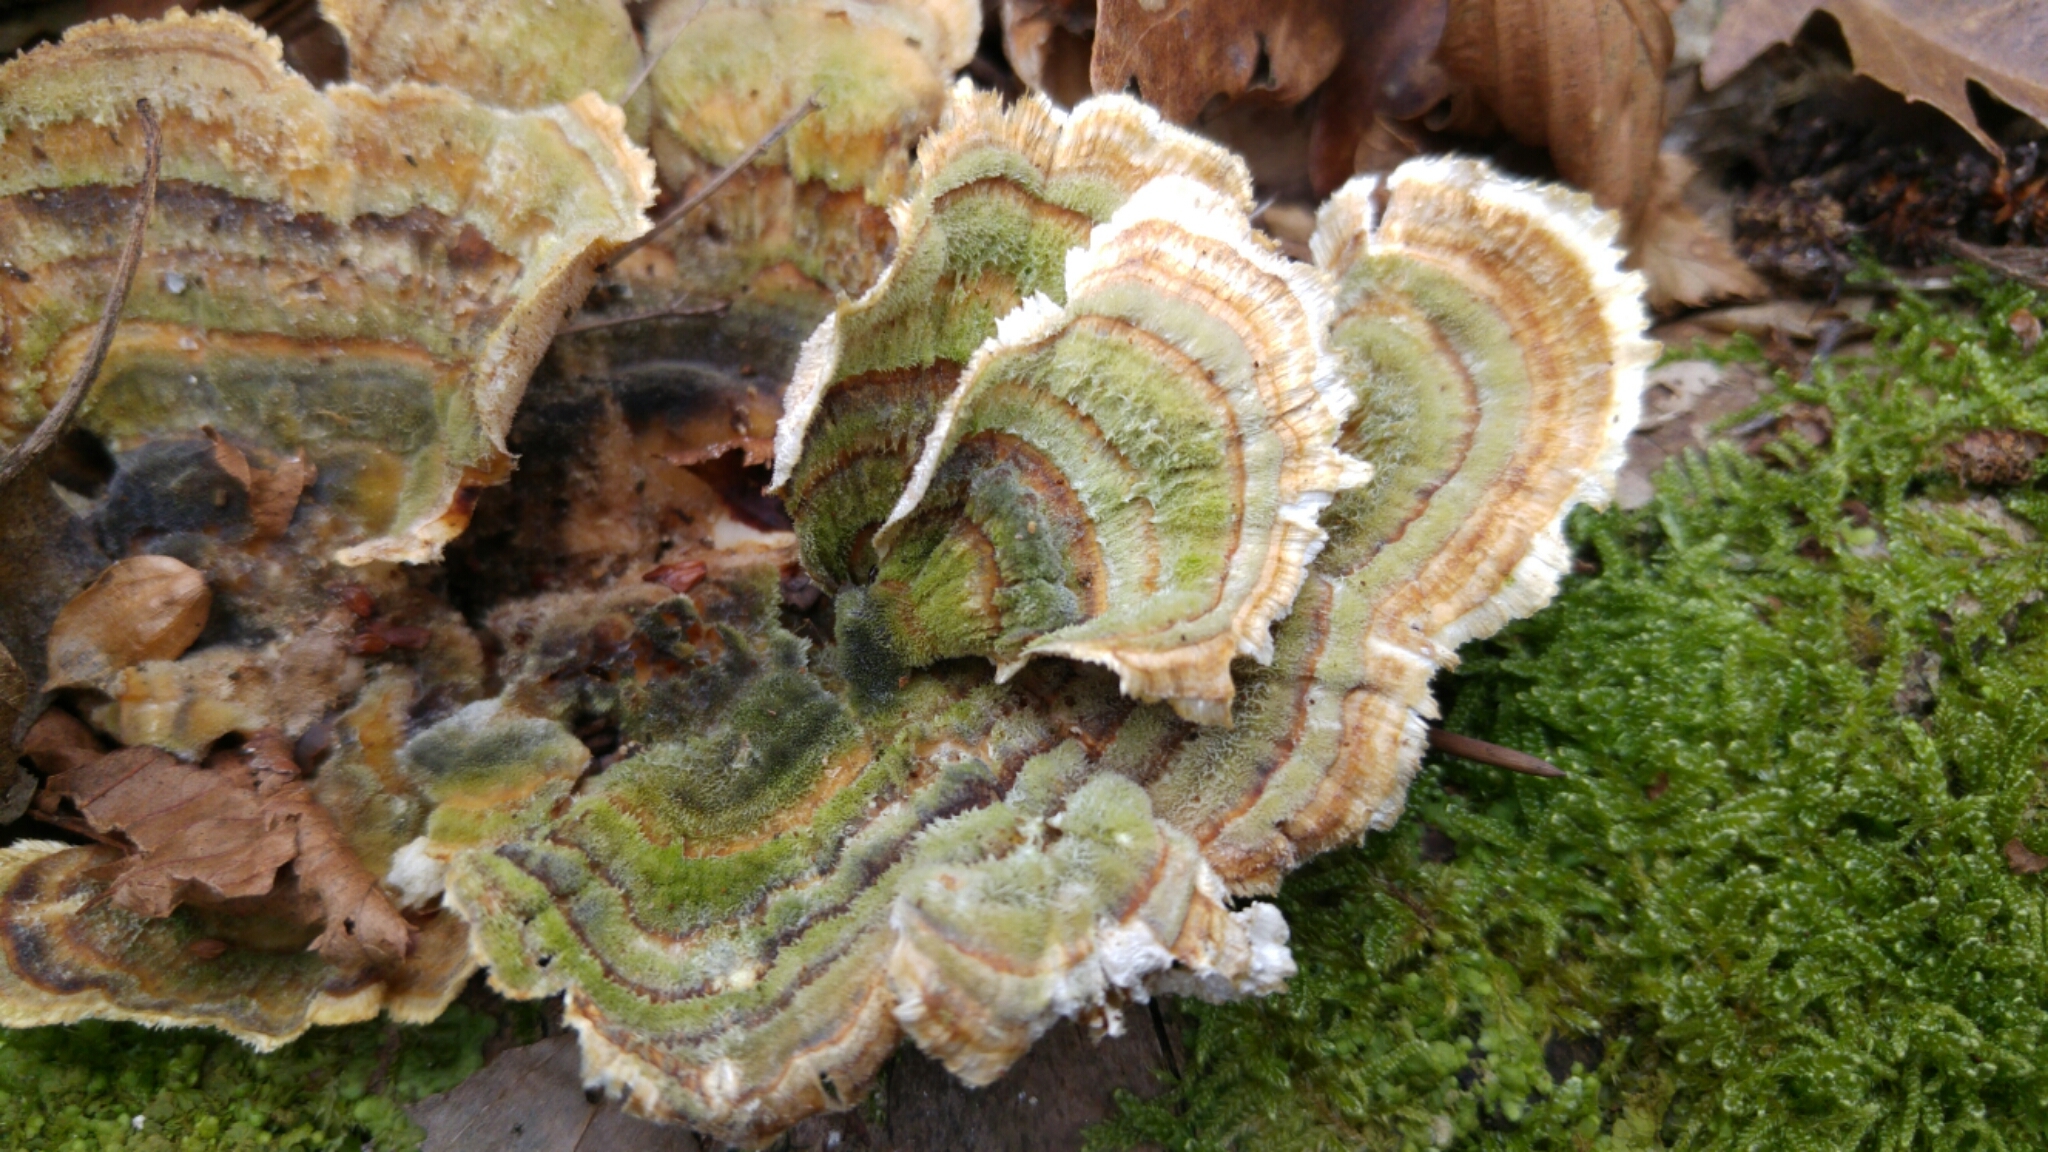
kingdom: Fungi
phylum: Basidiomycota
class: Agaricomycetes
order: Polyporales
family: Polyporaceae
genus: Trametes
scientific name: Trametes versicolor
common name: Turkeytail
